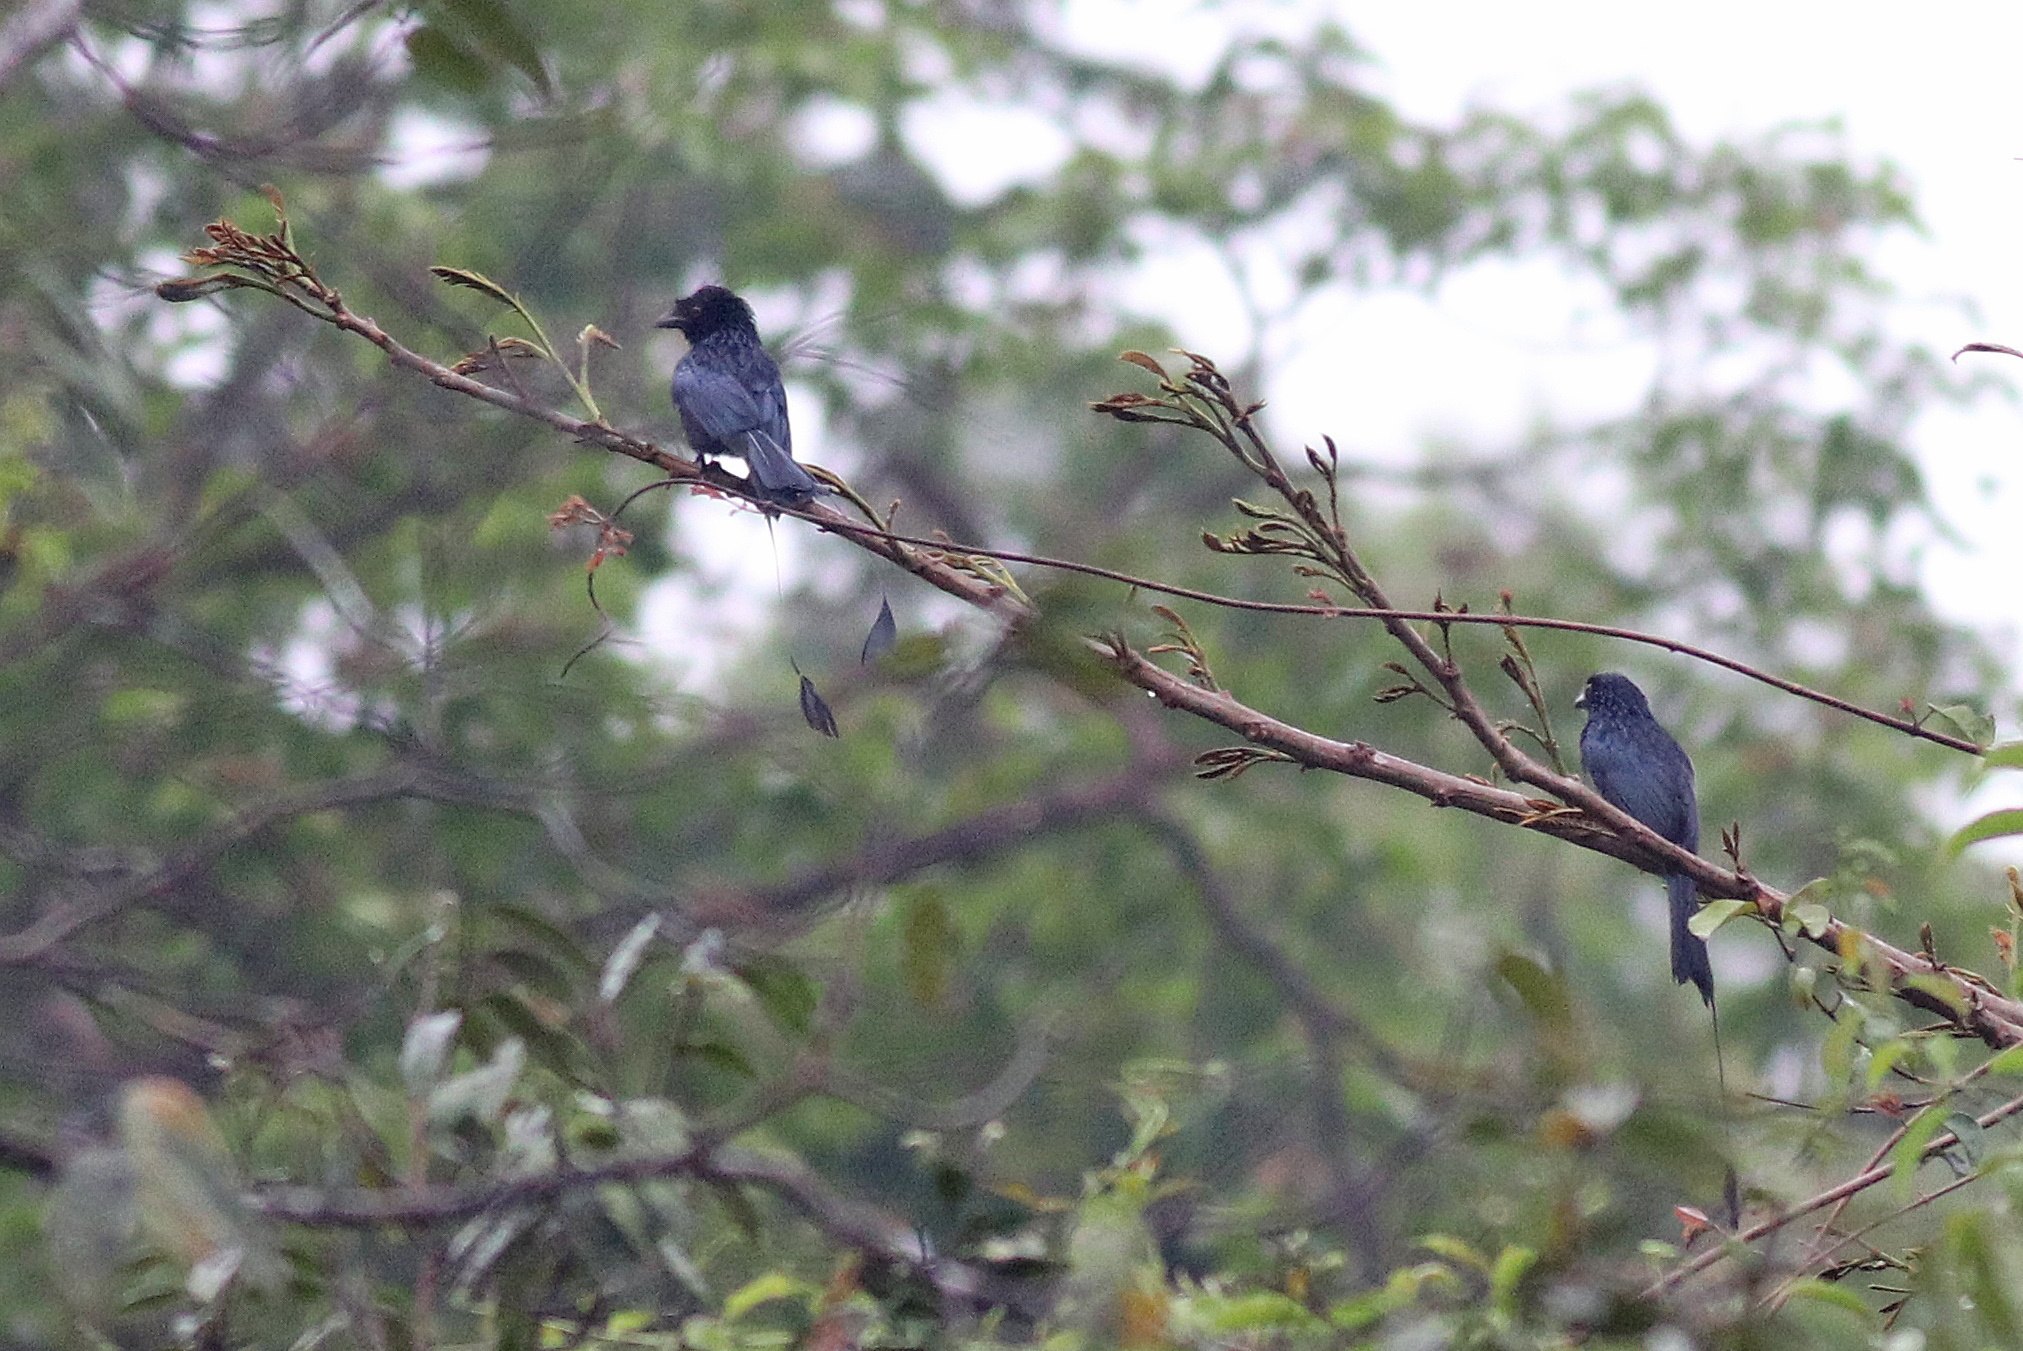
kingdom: Animalia
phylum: Chordata
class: Aves
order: Passeriformes
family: Dicruridae
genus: Dicrurus
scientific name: Dicrurus paradiseus
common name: Greater racket-tailed drongo
